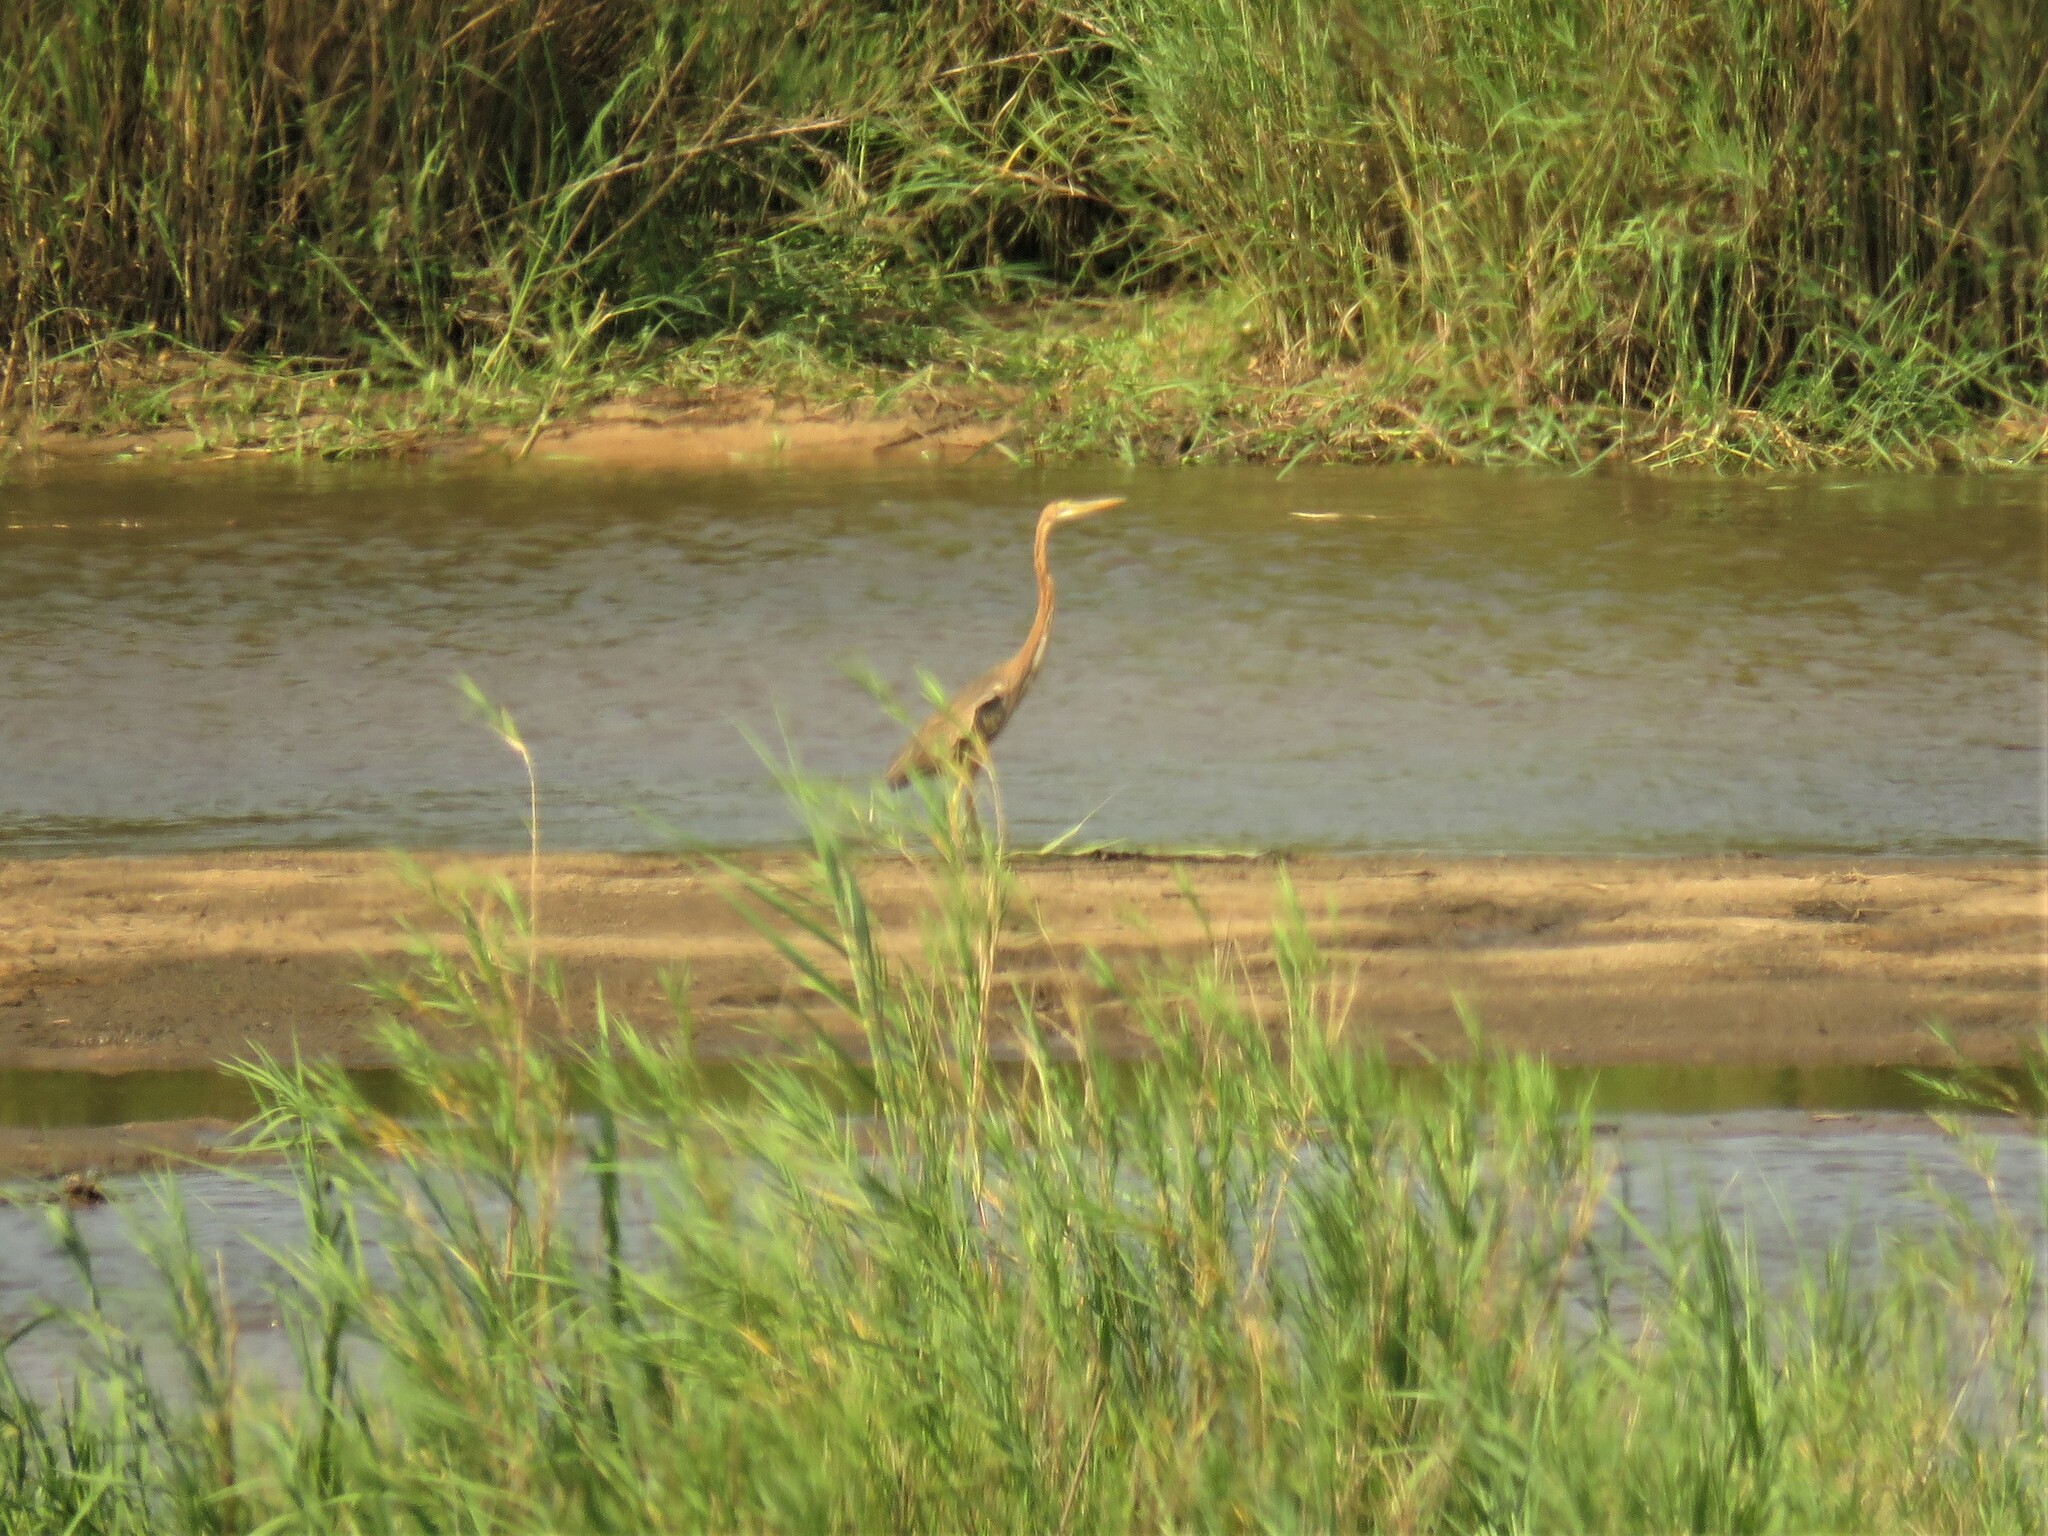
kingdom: Animalia
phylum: Chordata
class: Aves
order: Pelecaniformes
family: Ardeidae
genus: Ardea
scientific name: Ardea purpurea
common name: Purple heron
